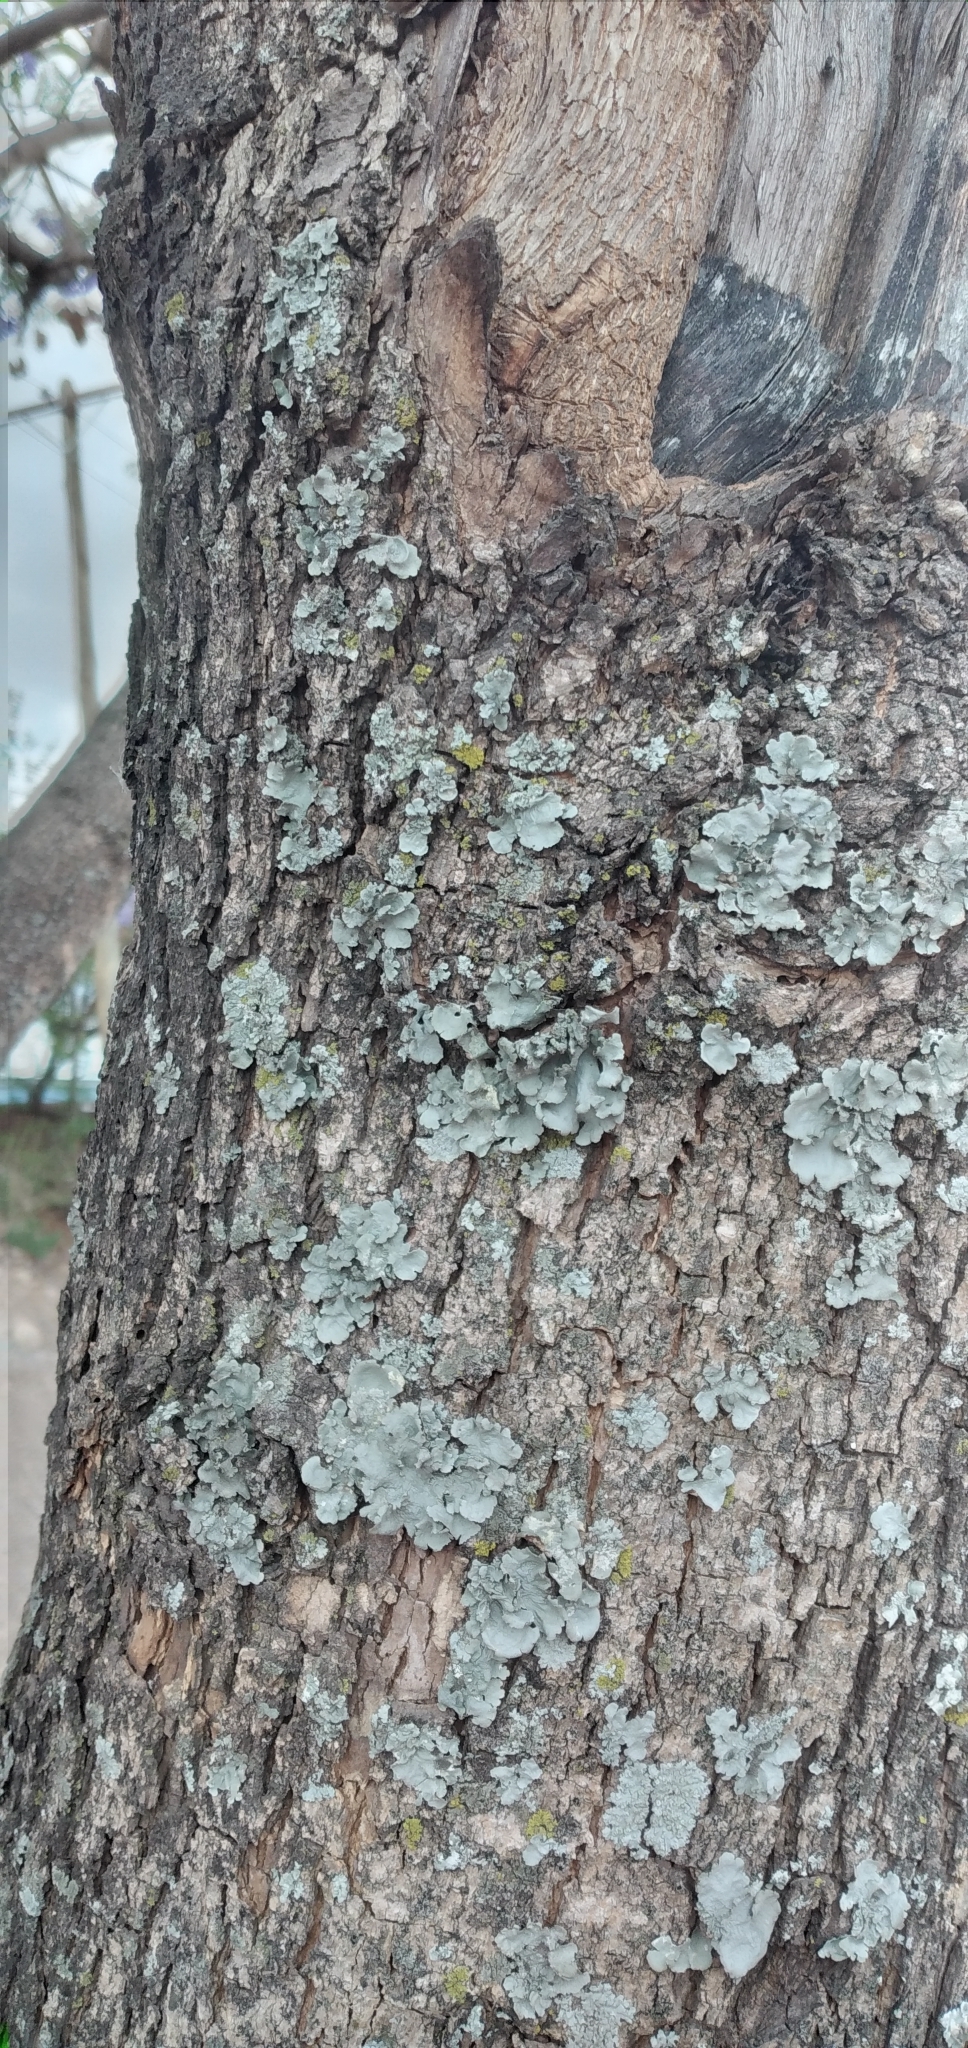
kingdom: Plantae
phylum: Tracheophyta
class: Magnoliopsida
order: Lamiales
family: Bignoniaceae
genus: Jacaranda
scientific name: Jacaranda mimosifolia
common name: Black poui
